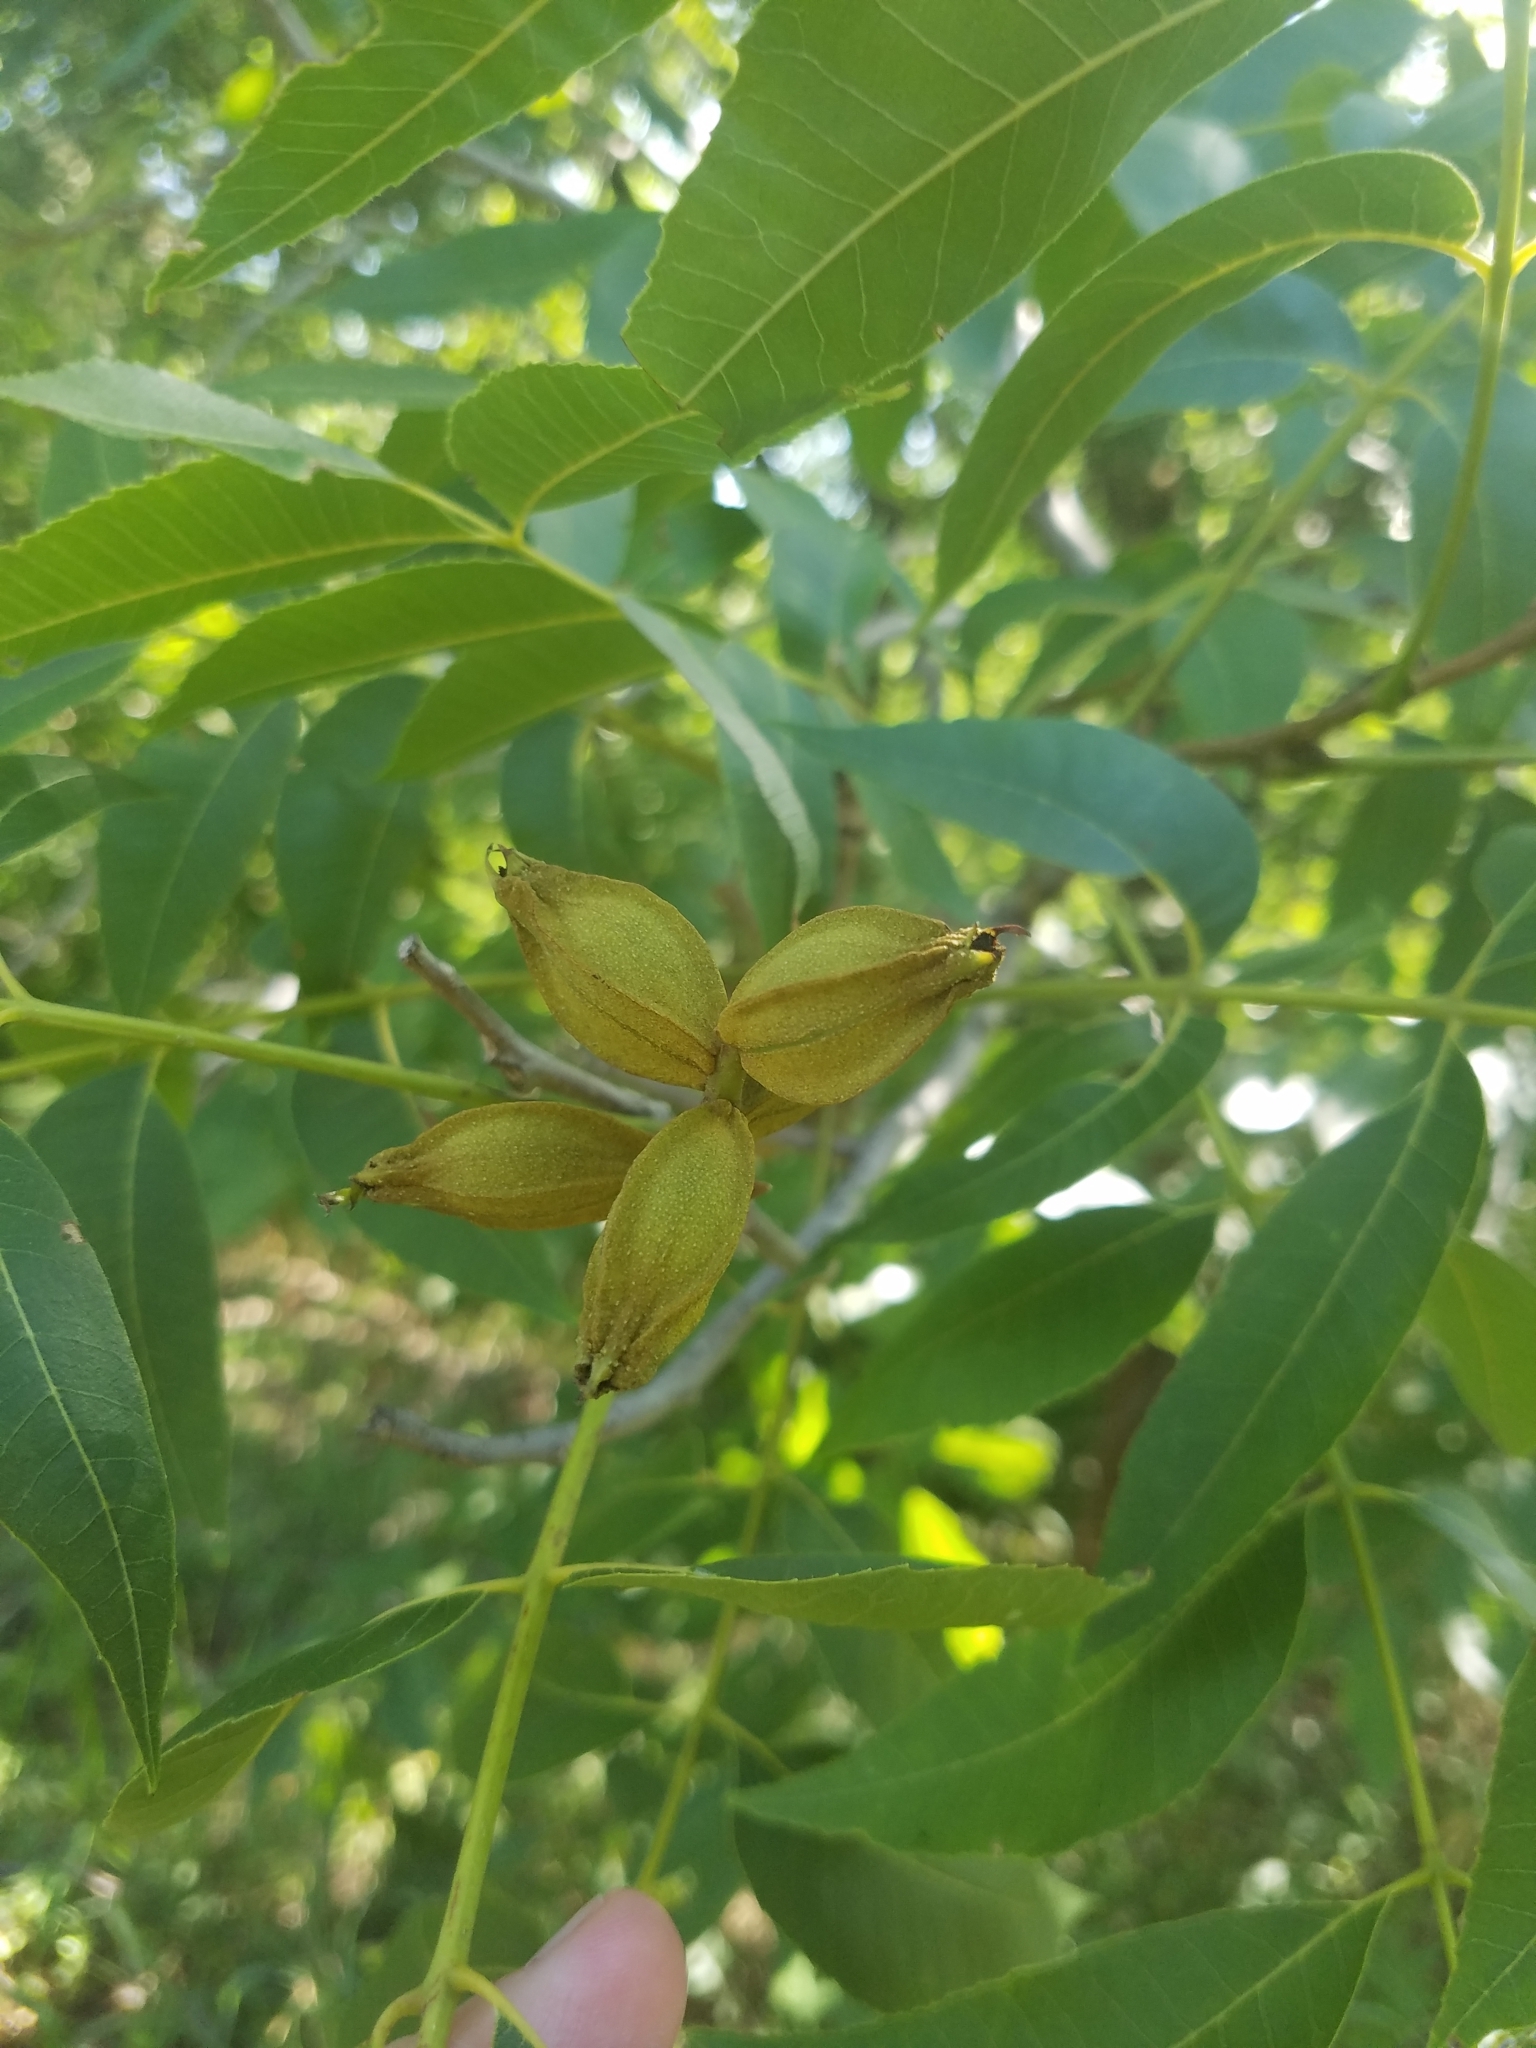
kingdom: Plantae
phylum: Tracheophyta
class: Magnoliopsida
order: Fagales
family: Juglandaceae
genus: Carya
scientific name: Carya illinoinensis
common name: Pecan
